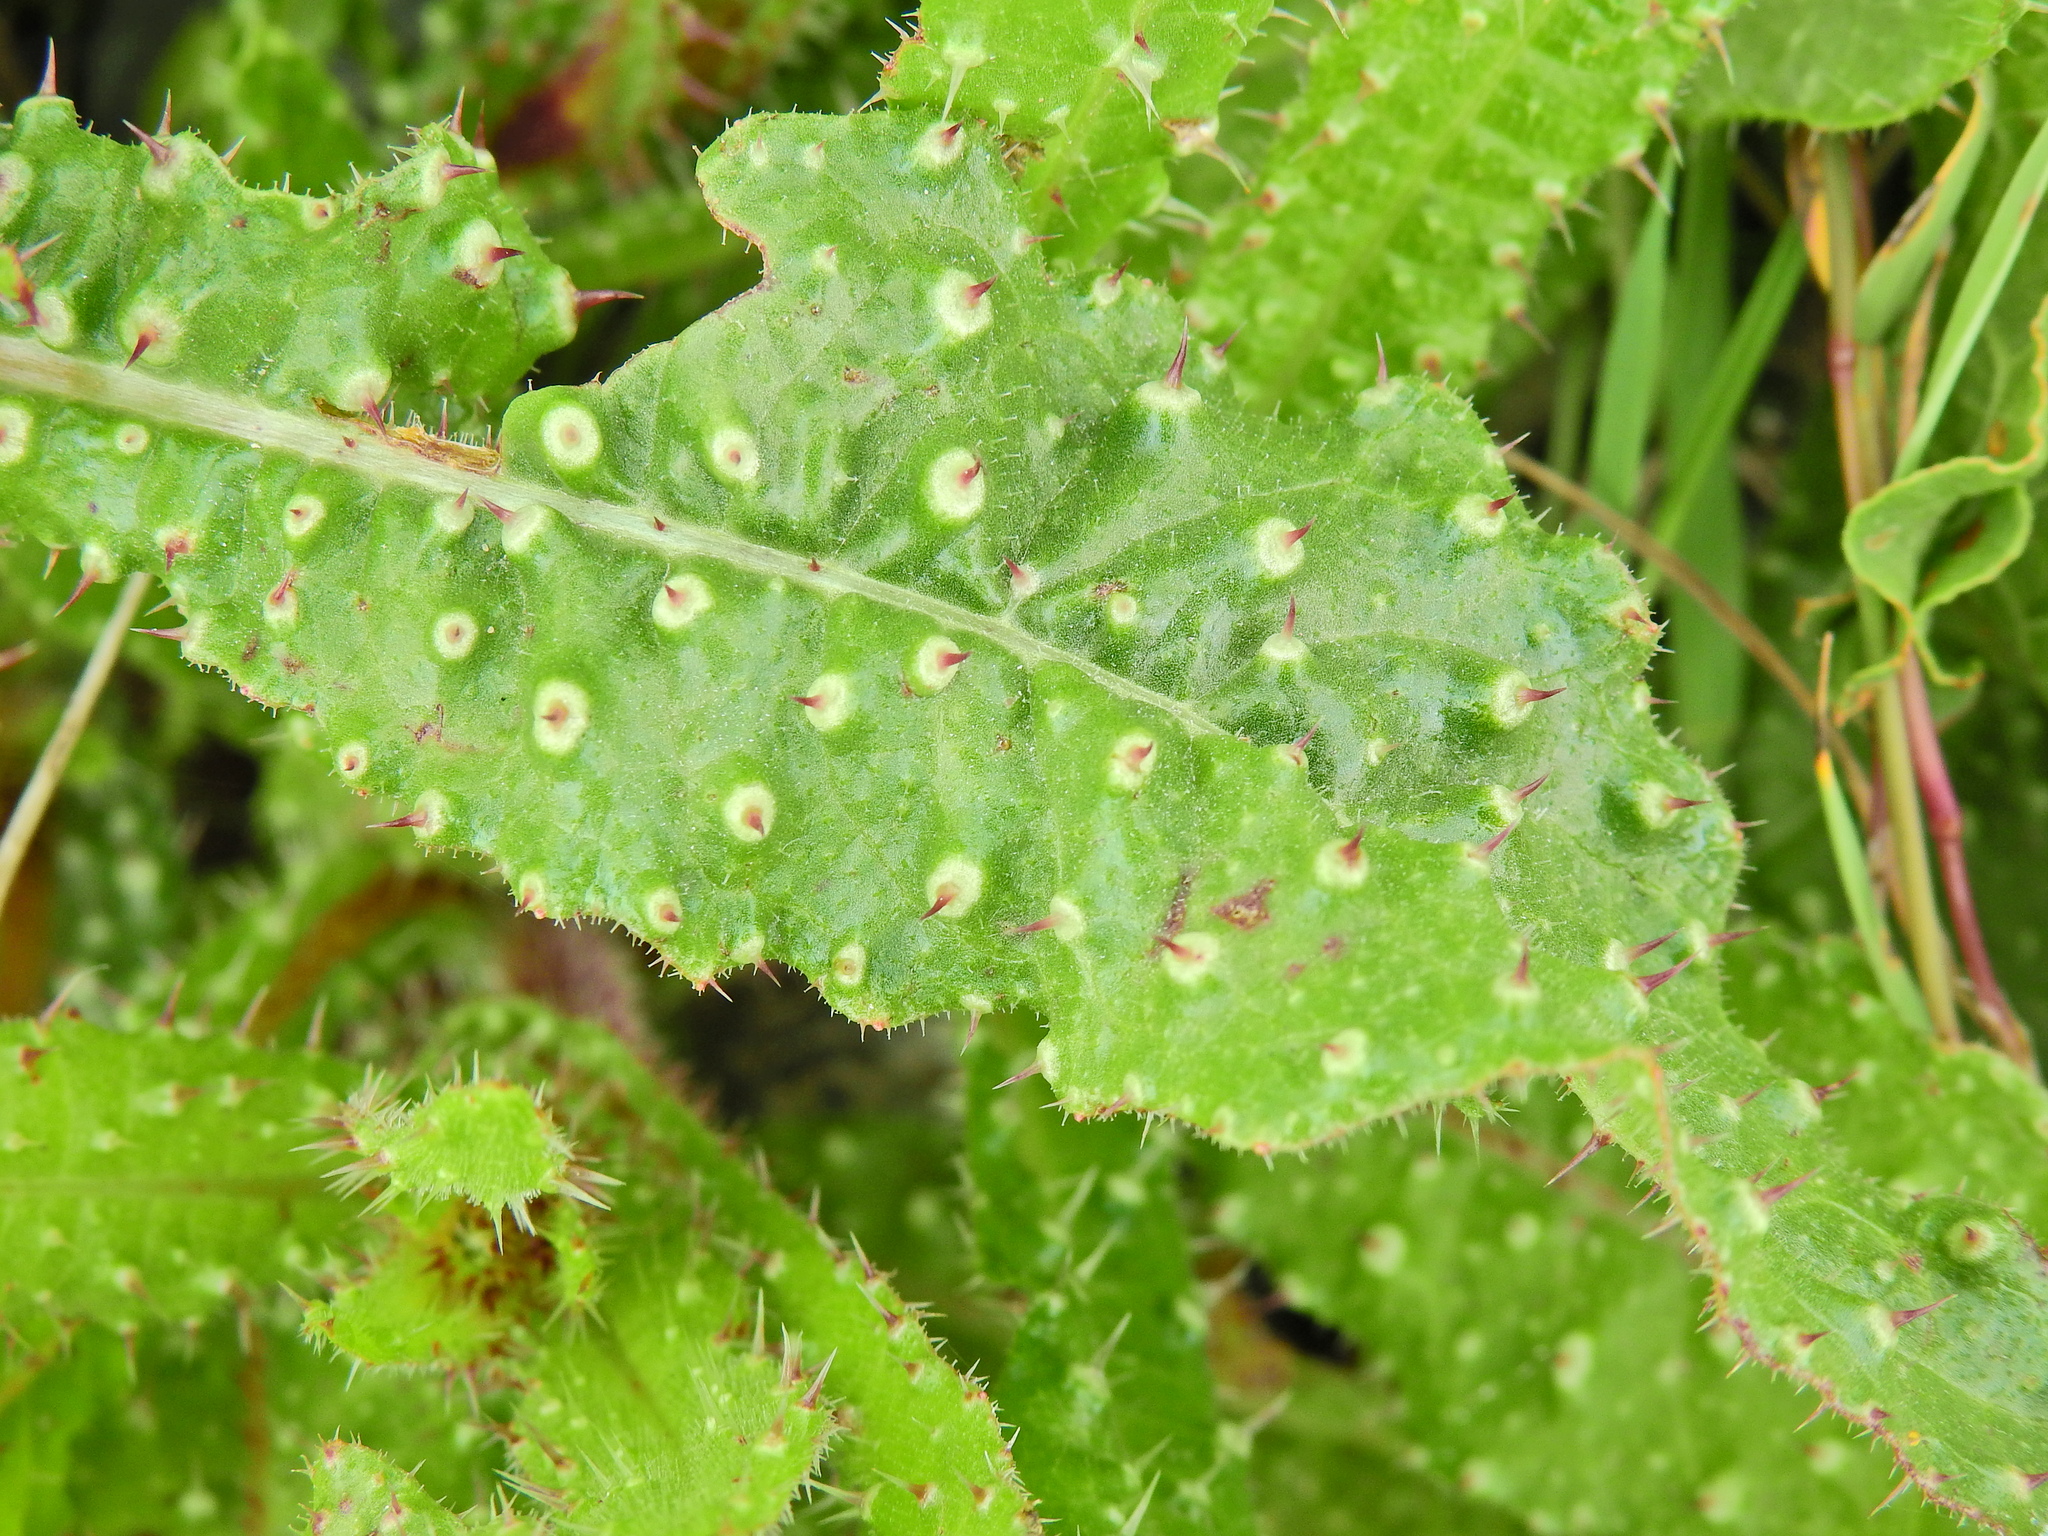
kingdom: Plantae
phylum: Tracheophyta
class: Magnoliopsida
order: Asterales
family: Asteraceae
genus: Helminthotheca
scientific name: Helminthotheca echioides
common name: Ox-tongue
